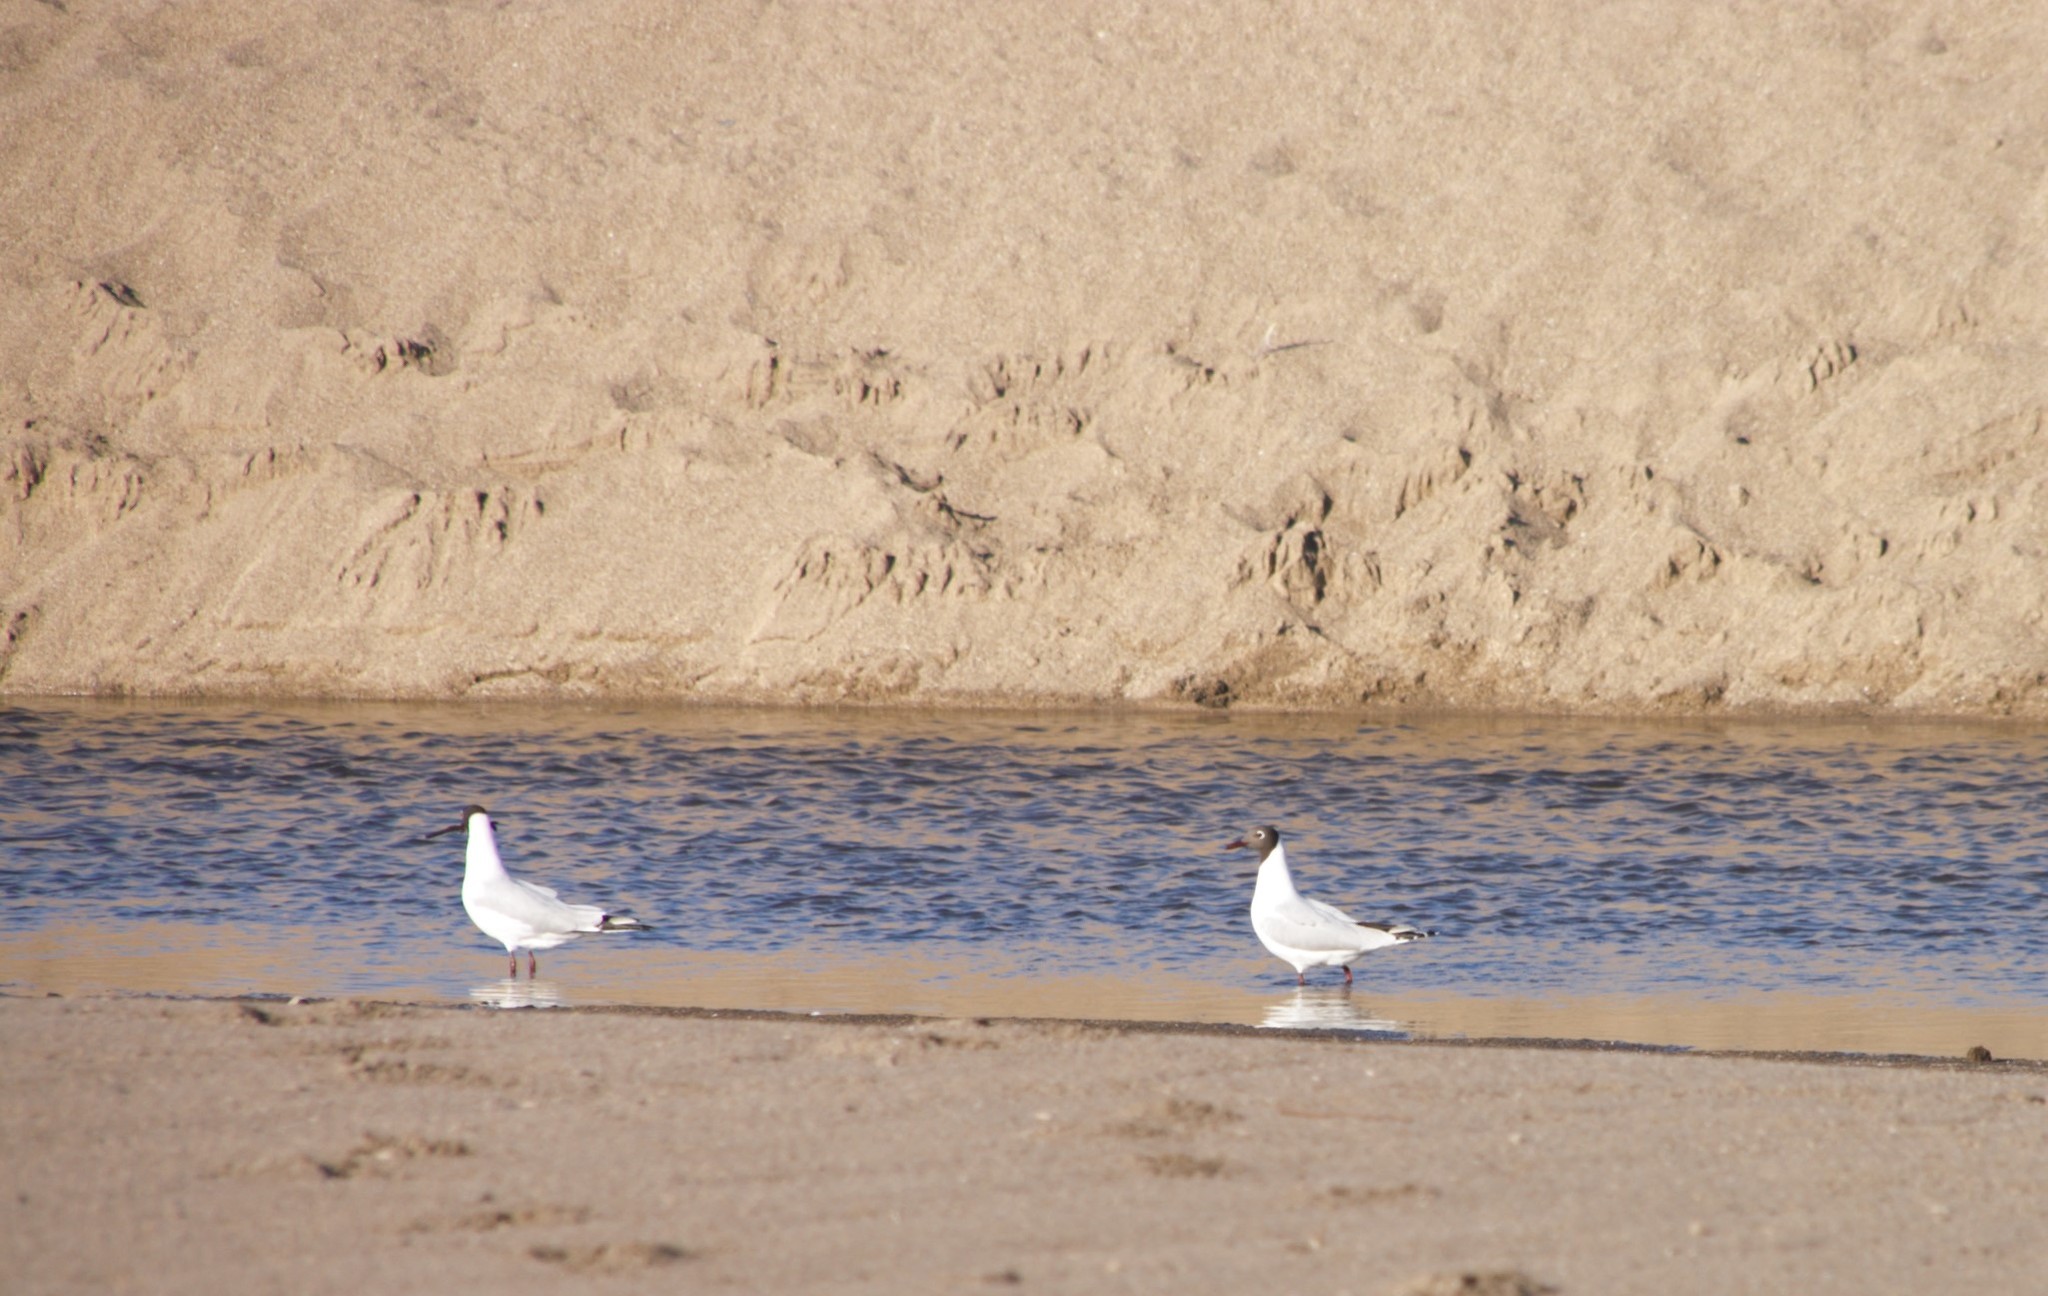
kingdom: Animalia
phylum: Chordata
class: Aves
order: Charadriiformes
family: Laridae
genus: Chroicocephalus
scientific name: Chroicocephalus maculipennis
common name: Brown-hooded gull
